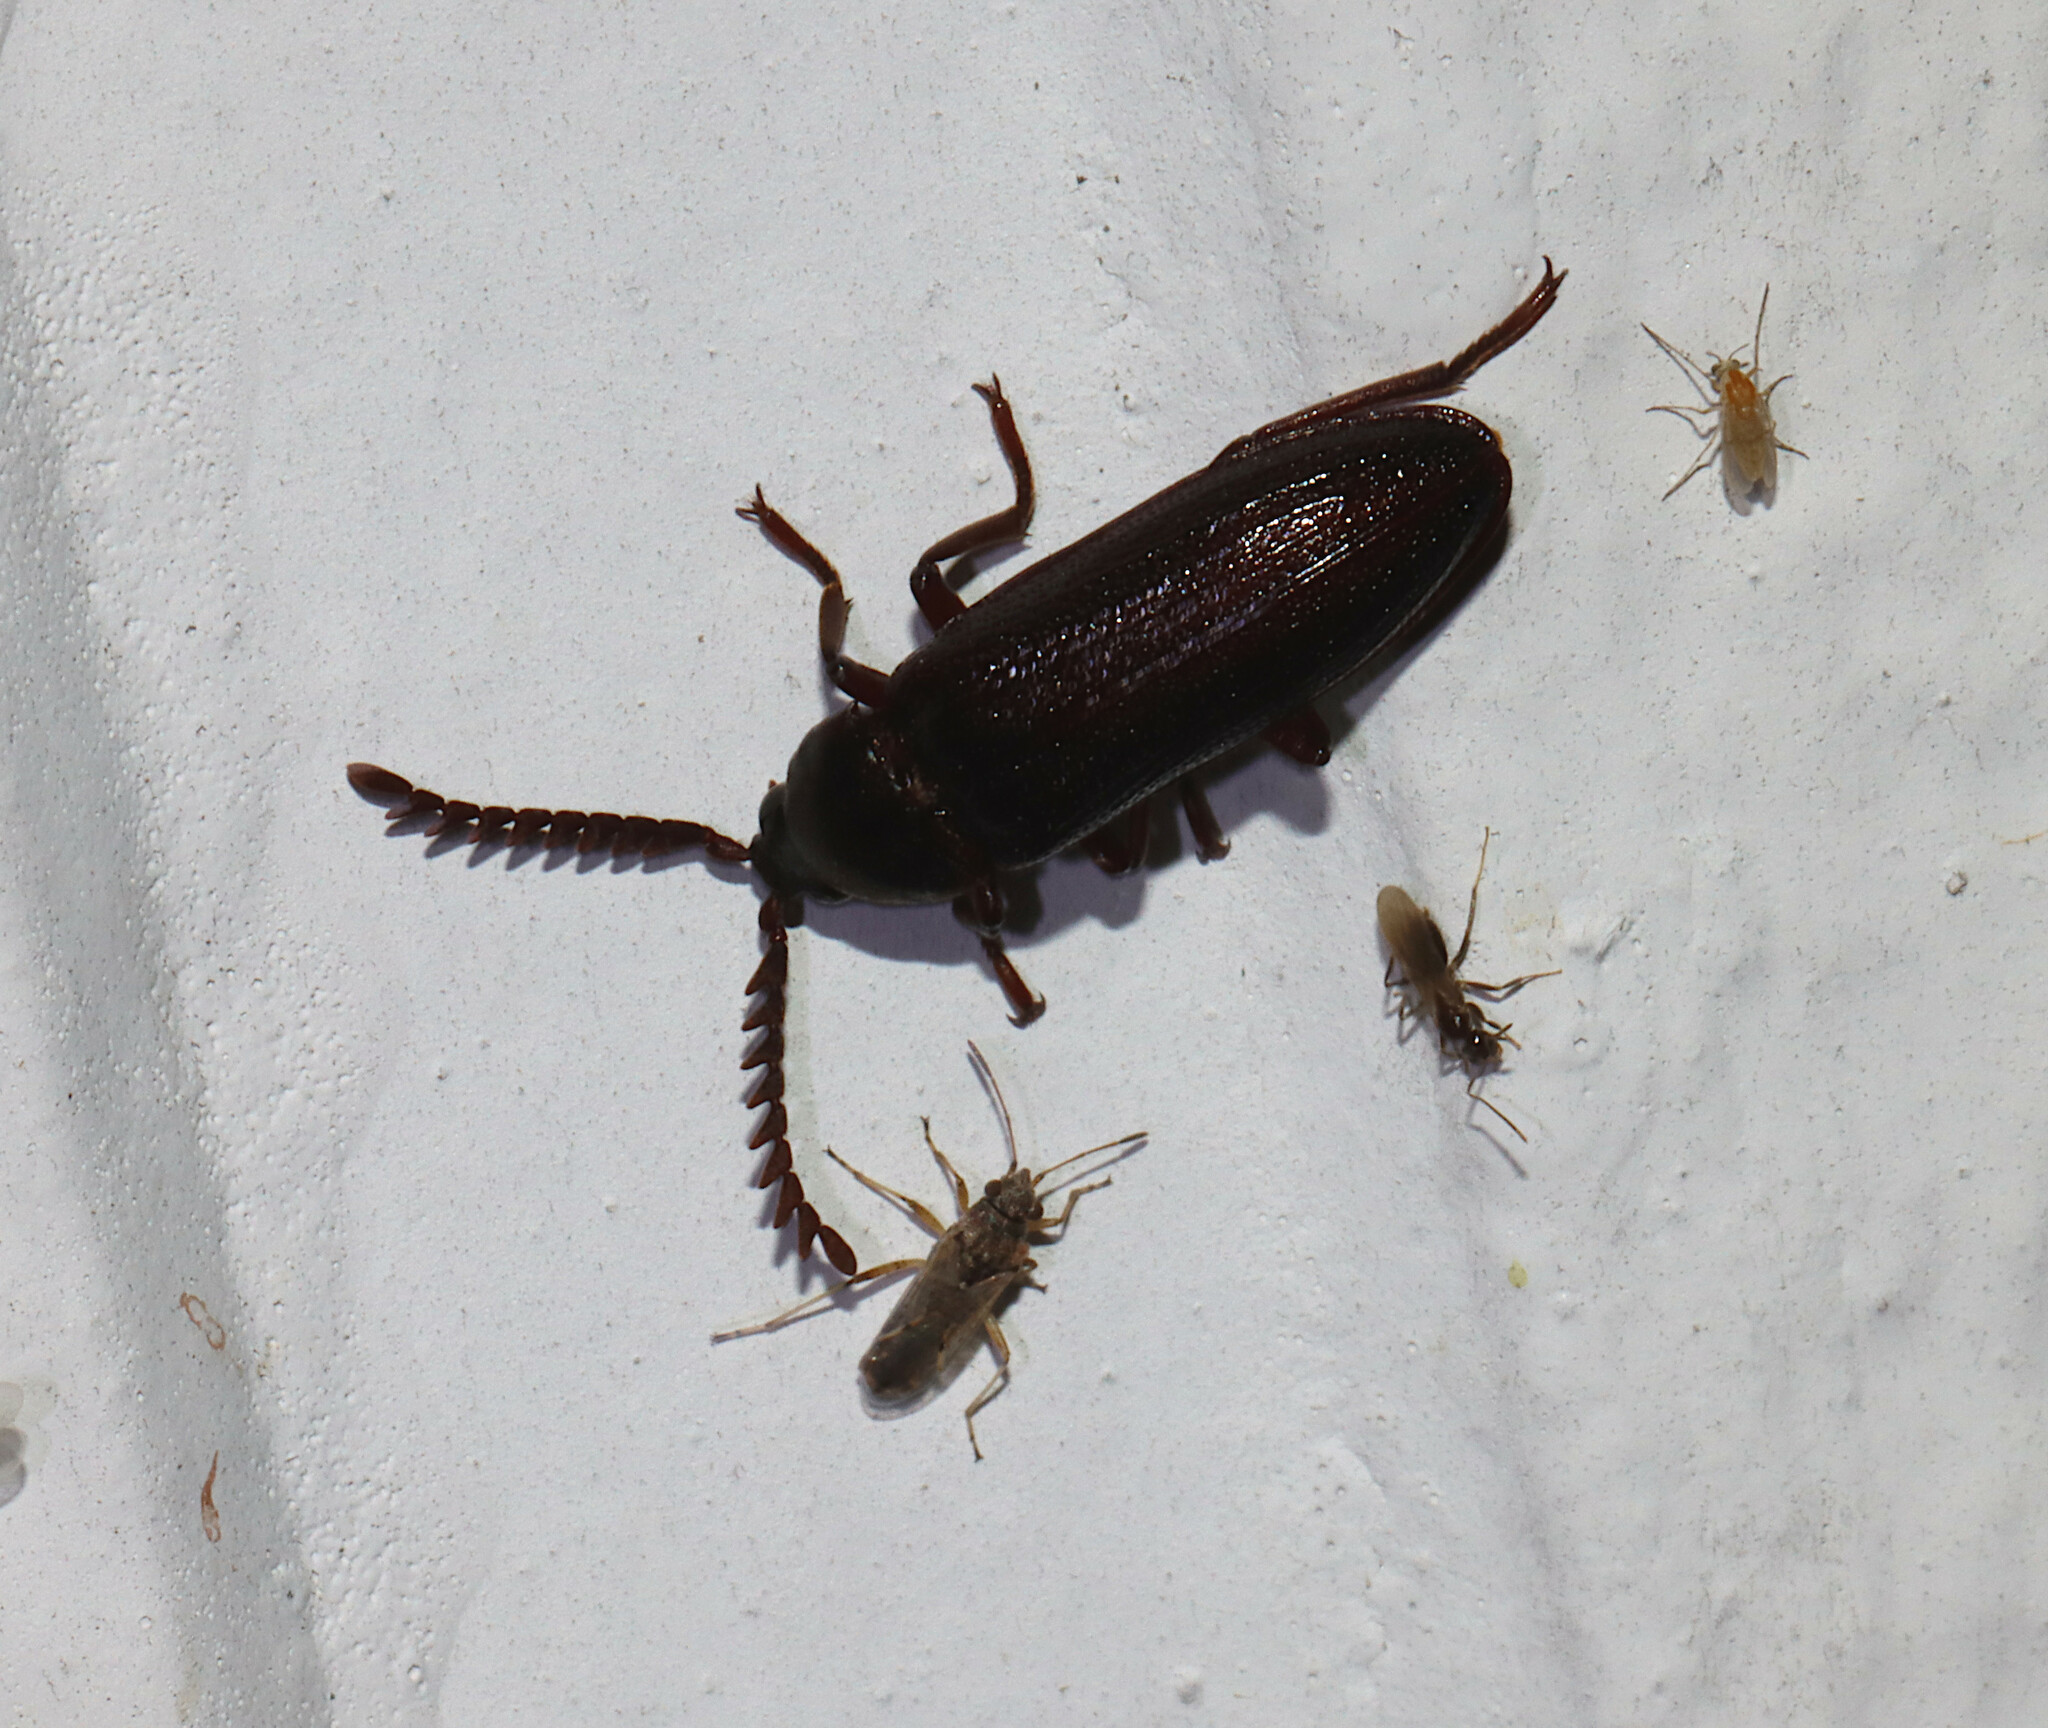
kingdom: Animalia
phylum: Arthropoda
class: Insecta
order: Coleoptera
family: Callirhipidae
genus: Zenoa
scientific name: Zenoa picea
